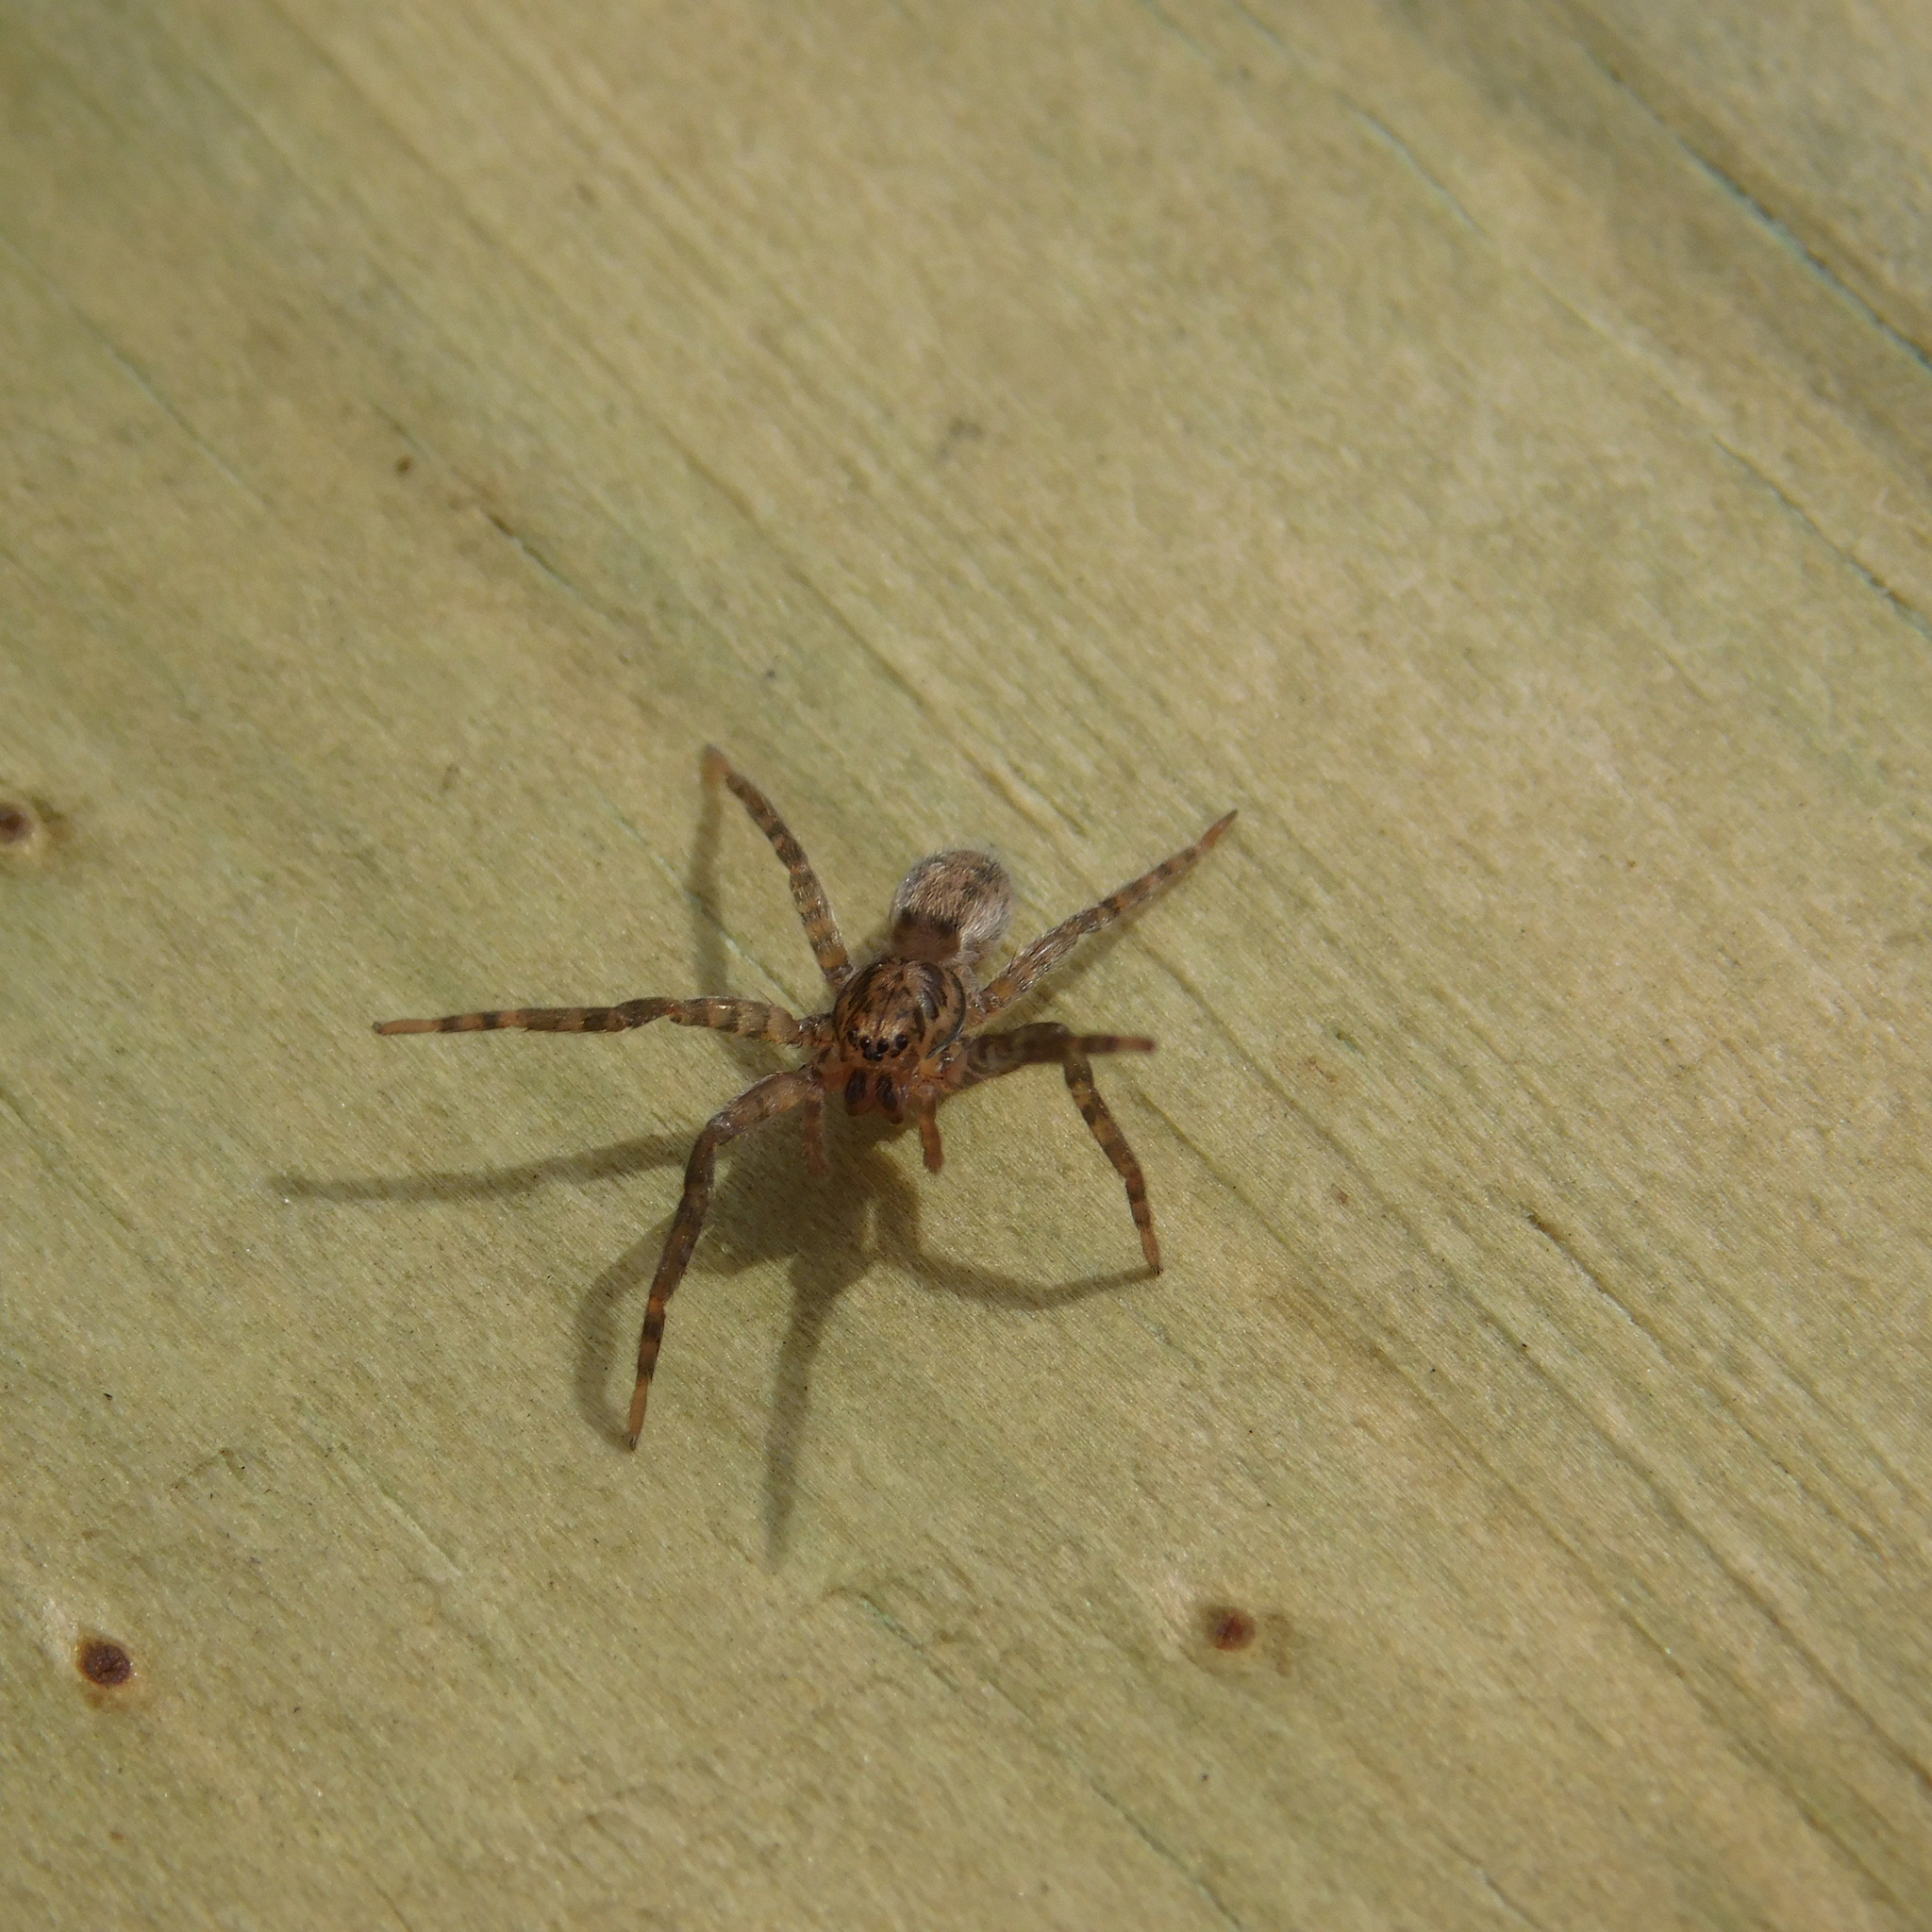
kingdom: Animalia
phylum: Arthropoda
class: Arachnida
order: Araneae
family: Ctenidae
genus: Asthenoctenus
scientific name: Asthenoctenus borellii
